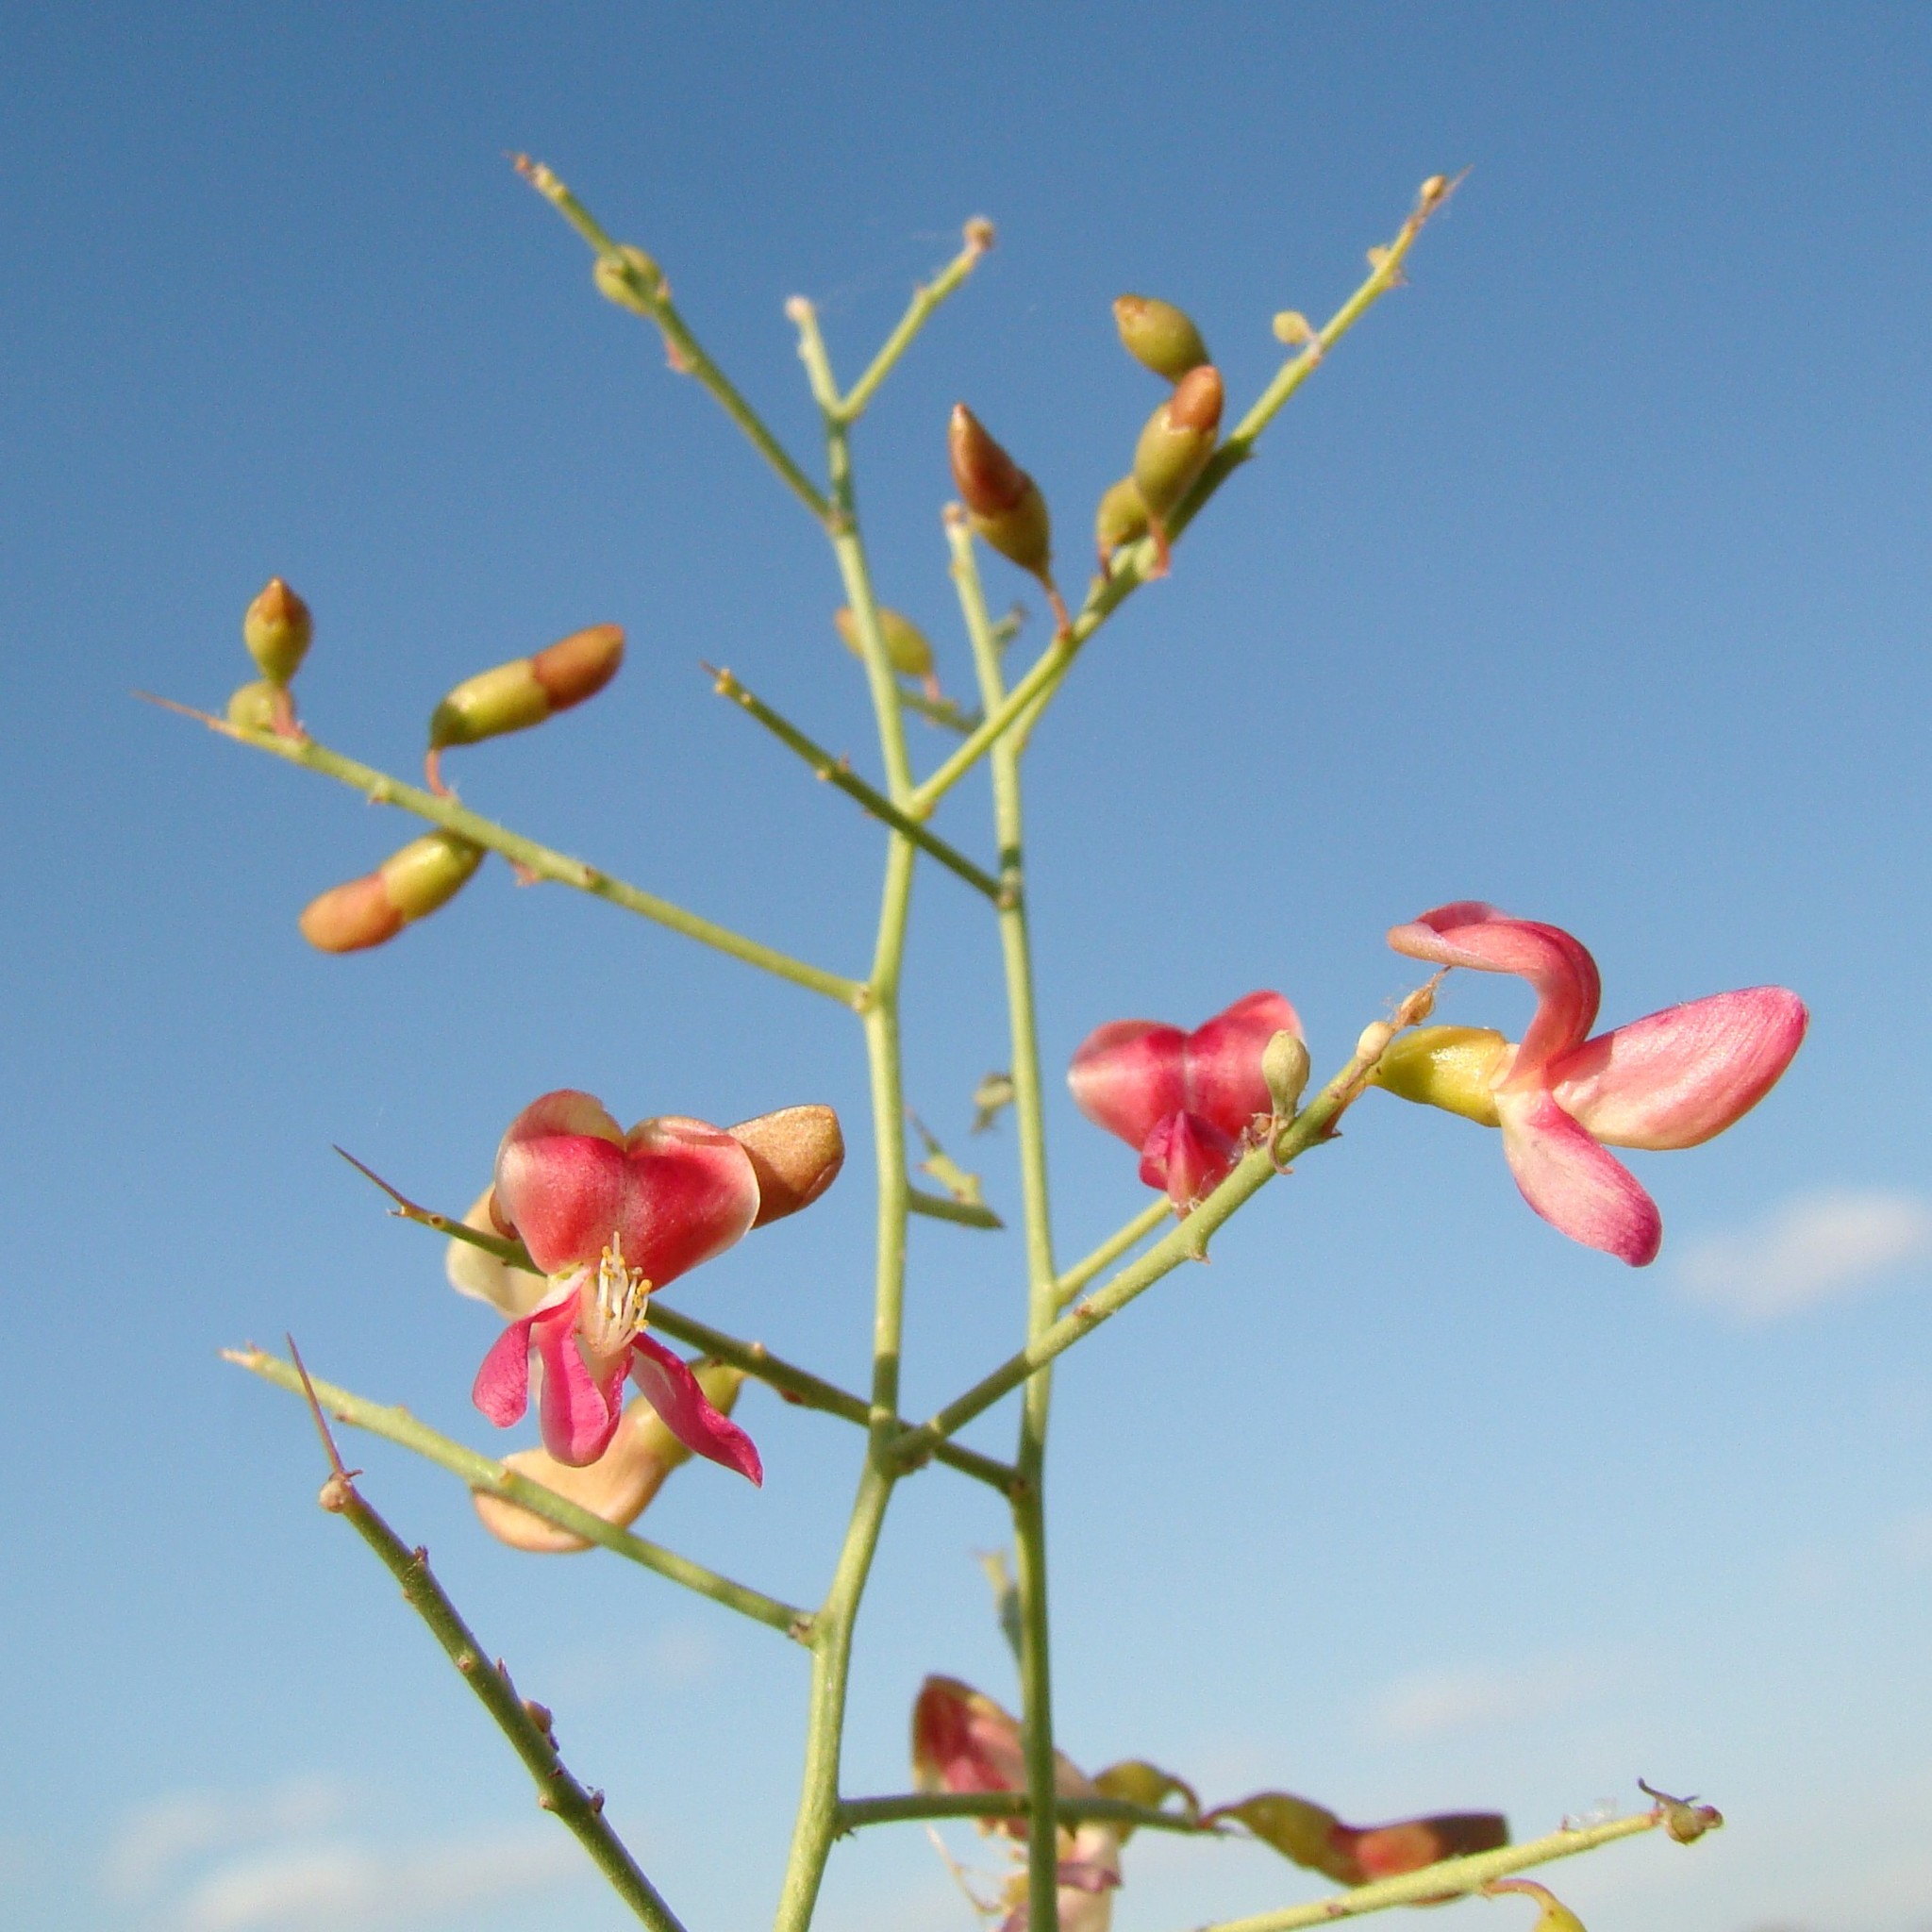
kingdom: Plantae
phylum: Tracheophyta
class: Magnoliopsida
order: Fabales
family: Fabaceae
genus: Alhagi
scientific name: Alhagi pseudalhagi
